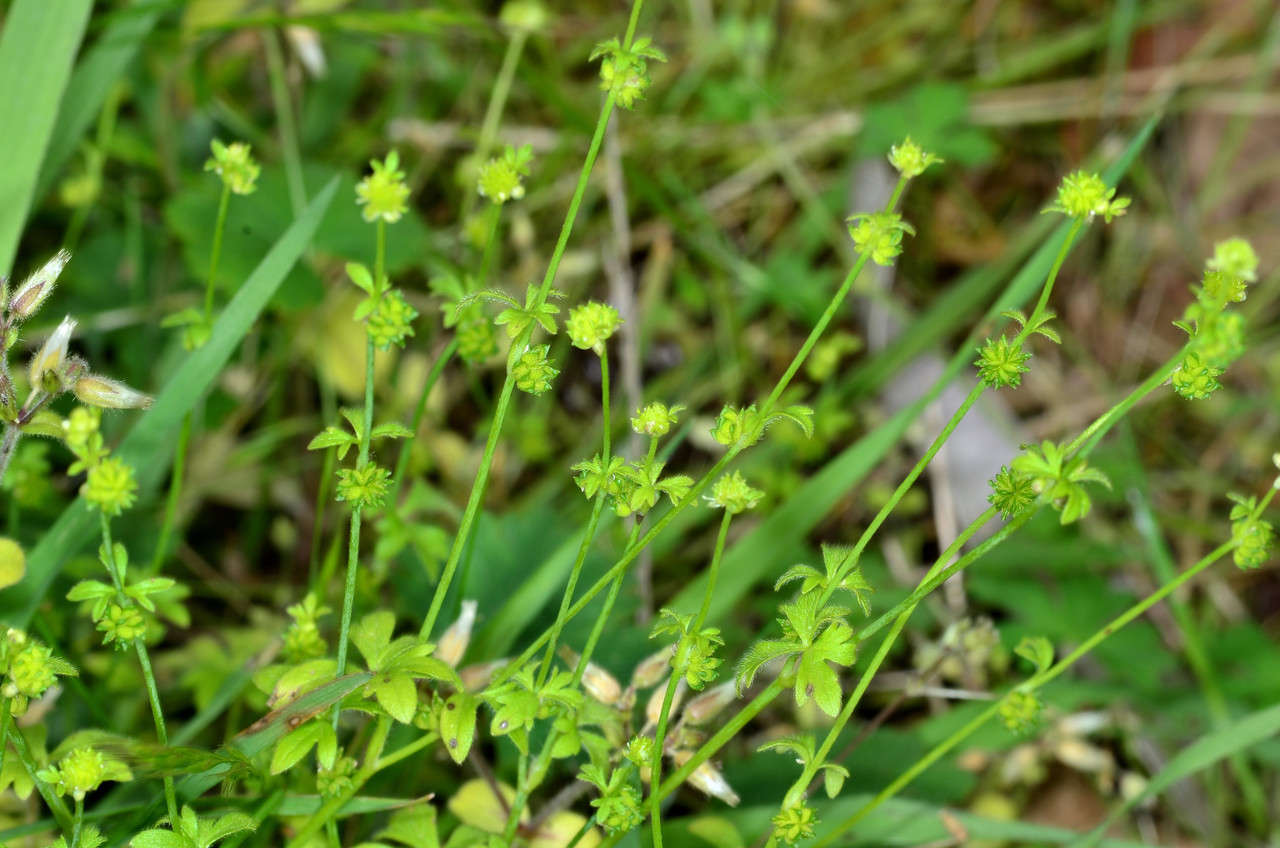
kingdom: Plantae
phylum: Tracheophyta
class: Magnoliopsida
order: Ranunculales
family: Ranunculaceae
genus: Ranunculus
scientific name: Ranunculus sessiliflorus
